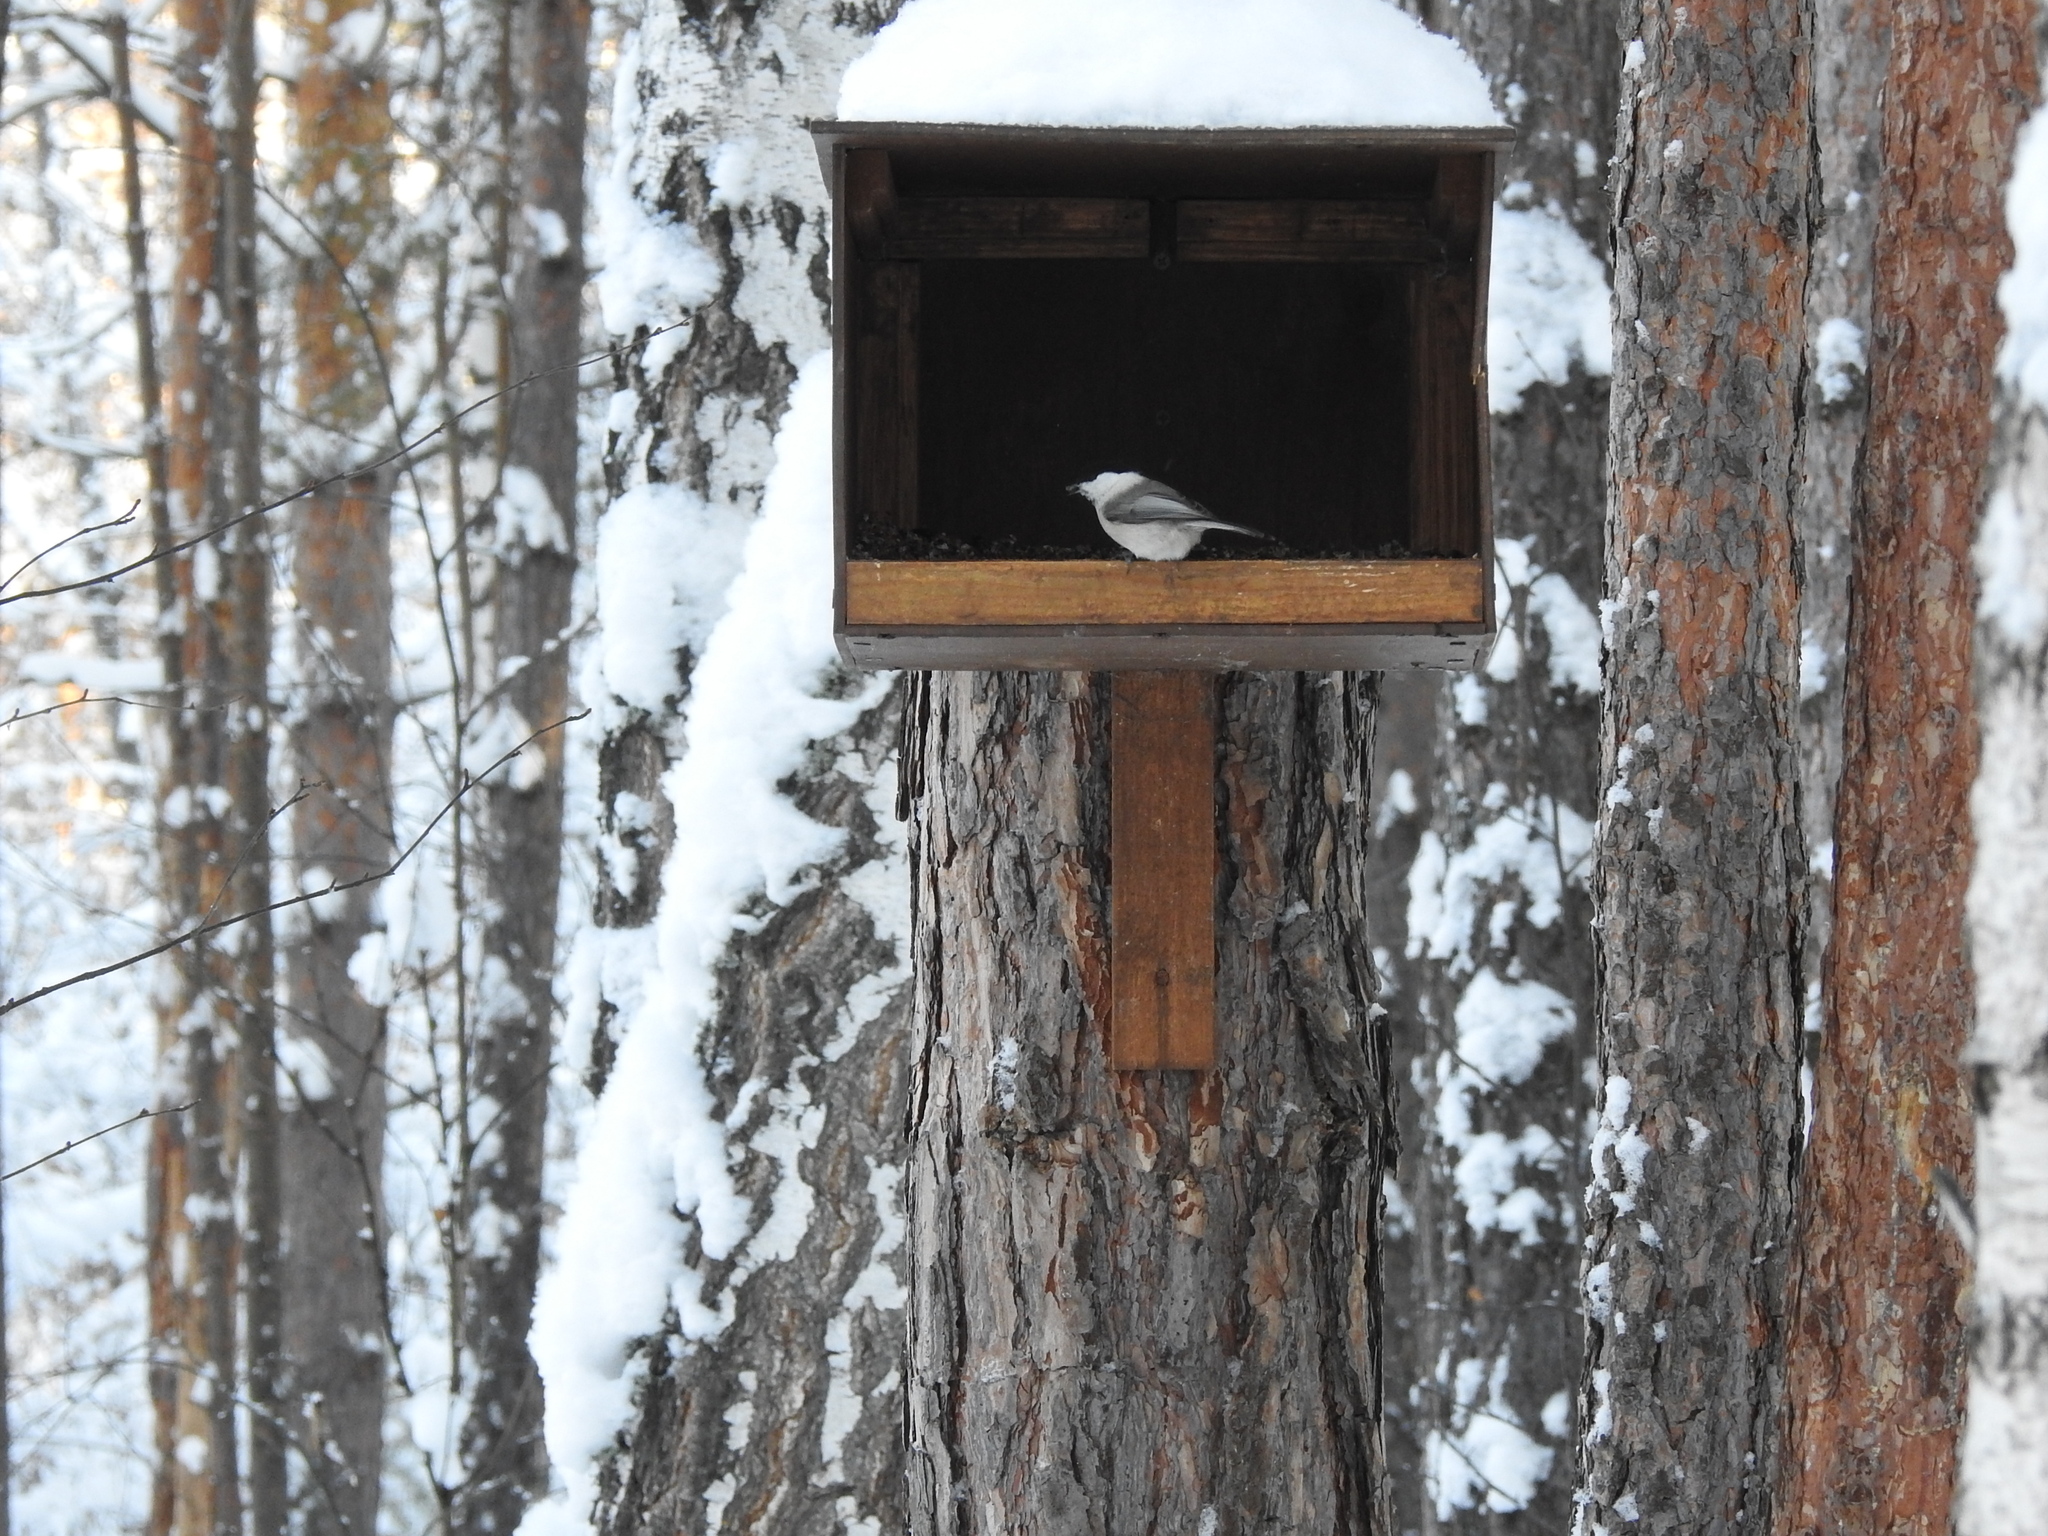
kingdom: Animalia
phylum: Chordata
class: Aves
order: Passeriformes
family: Paridae
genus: Poecile
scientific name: Poecile montanus
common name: Willow tit
